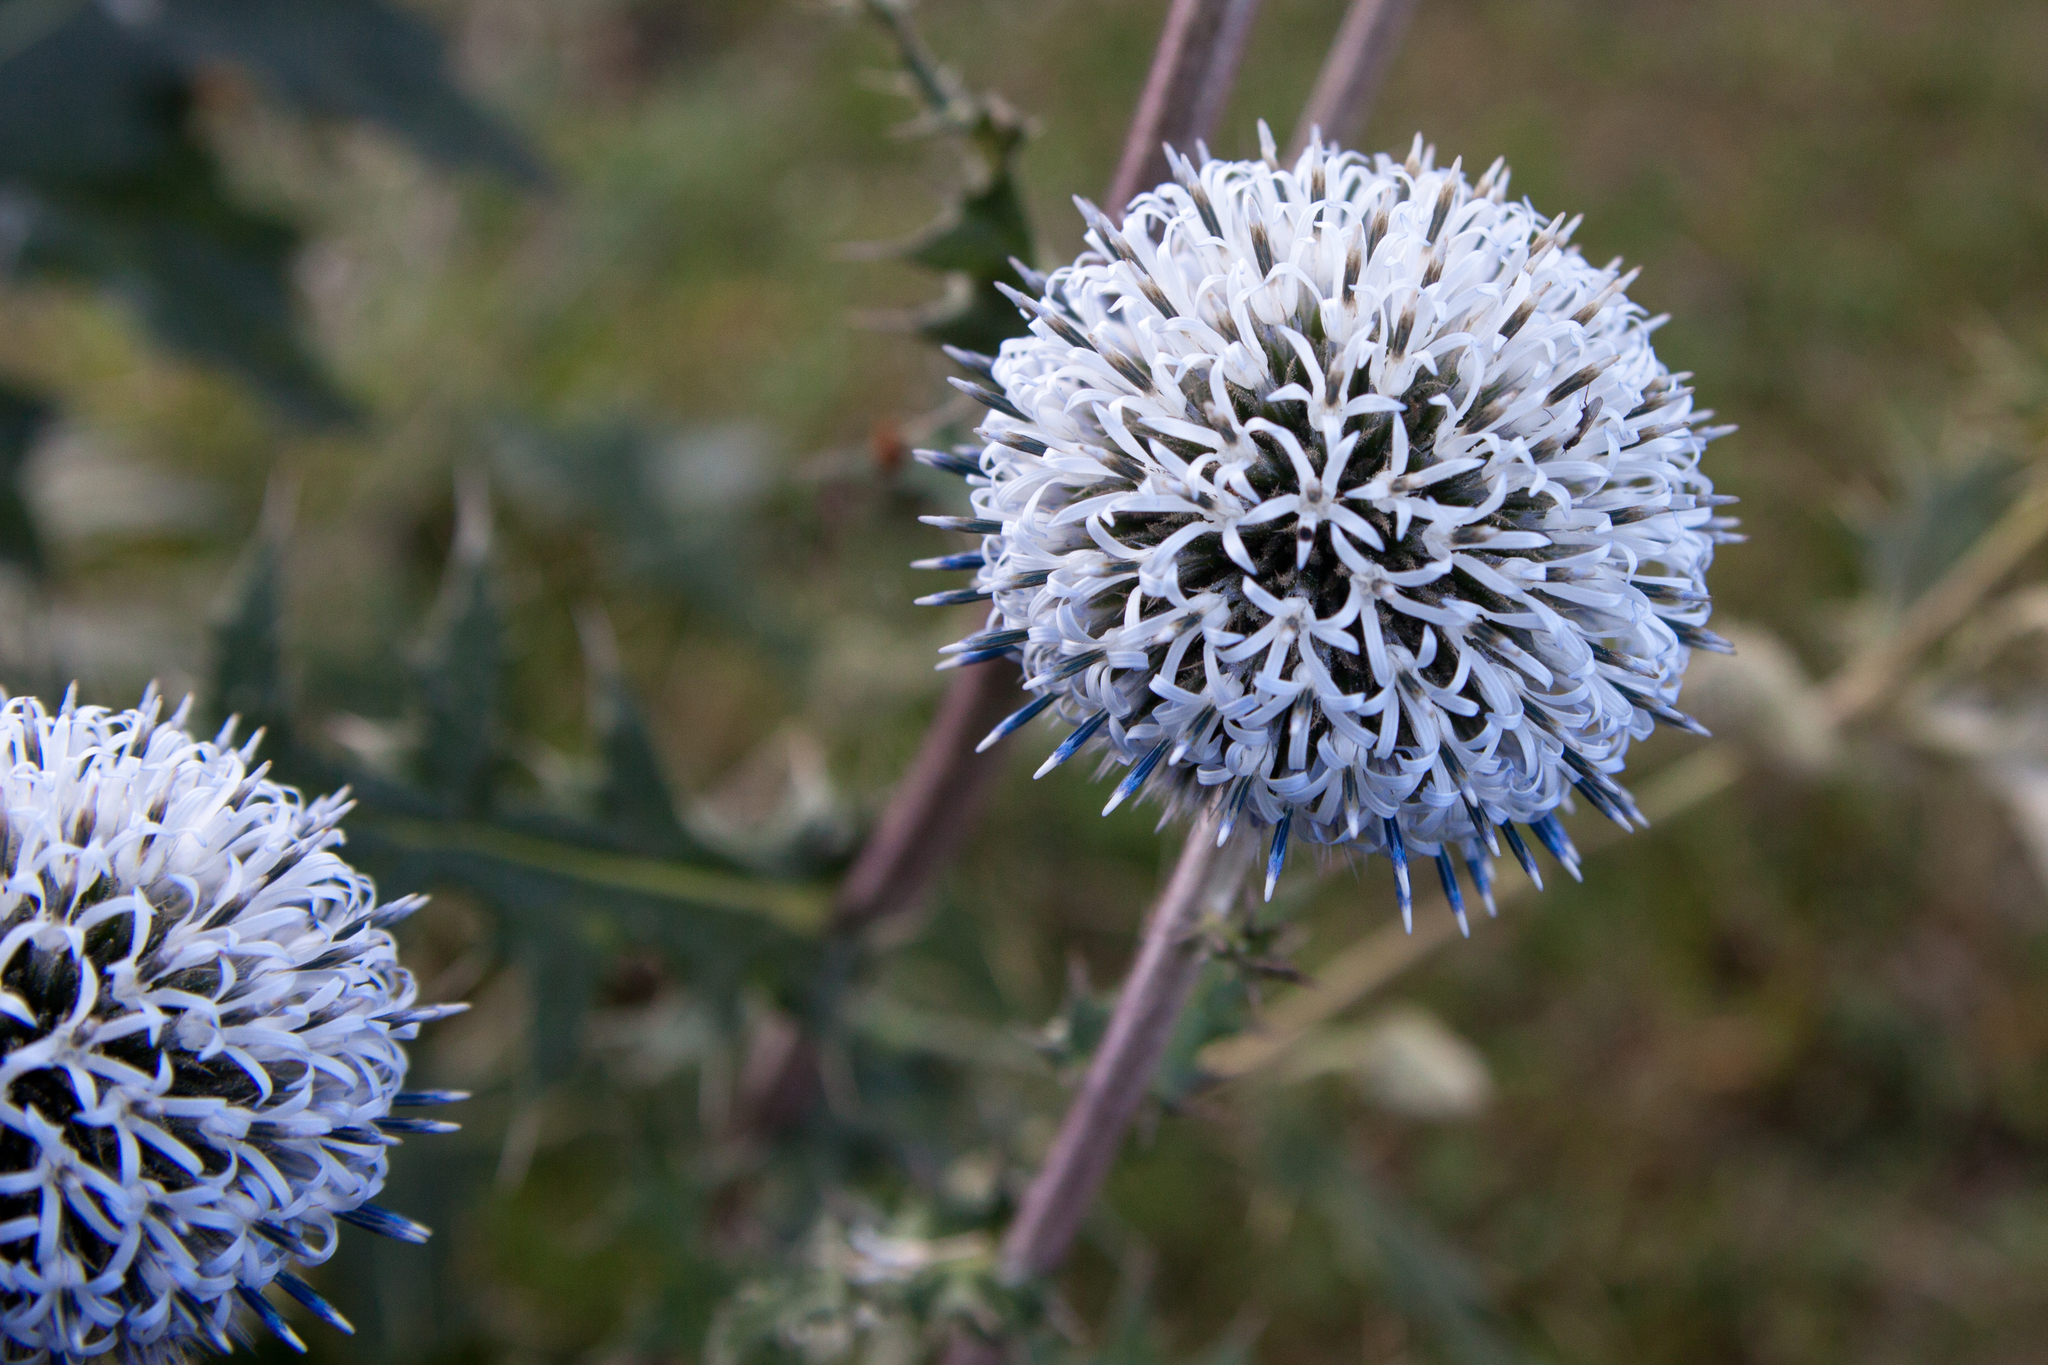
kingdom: Plantae
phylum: Tracheophyta
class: Magnoliopsida
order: Asterales
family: Asteraceae
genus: Echinops
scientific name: Echinops sphaerocephalus
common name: Glandular globe-thistle
